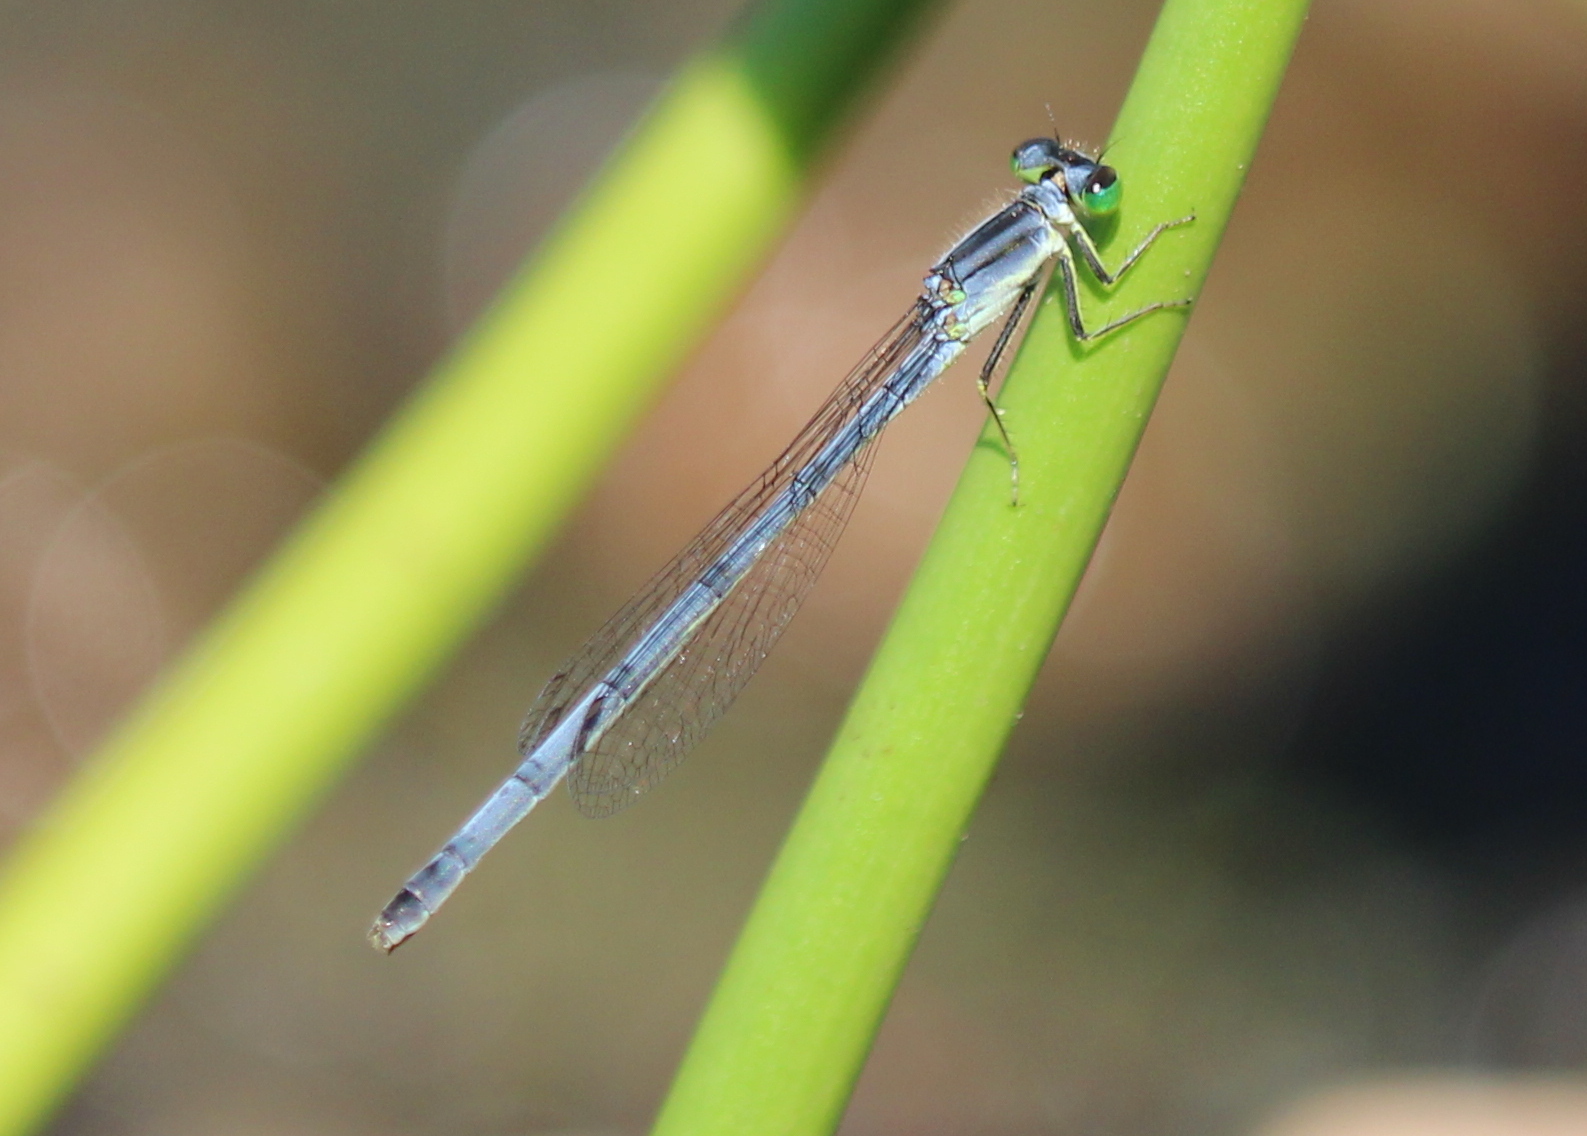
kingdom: Animalia
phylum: Arthropoda
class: Insecta
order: Odonata
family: Coenagrionidae
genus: Ischnura
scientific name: Ischnura verticalis
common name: Eastern forktail
